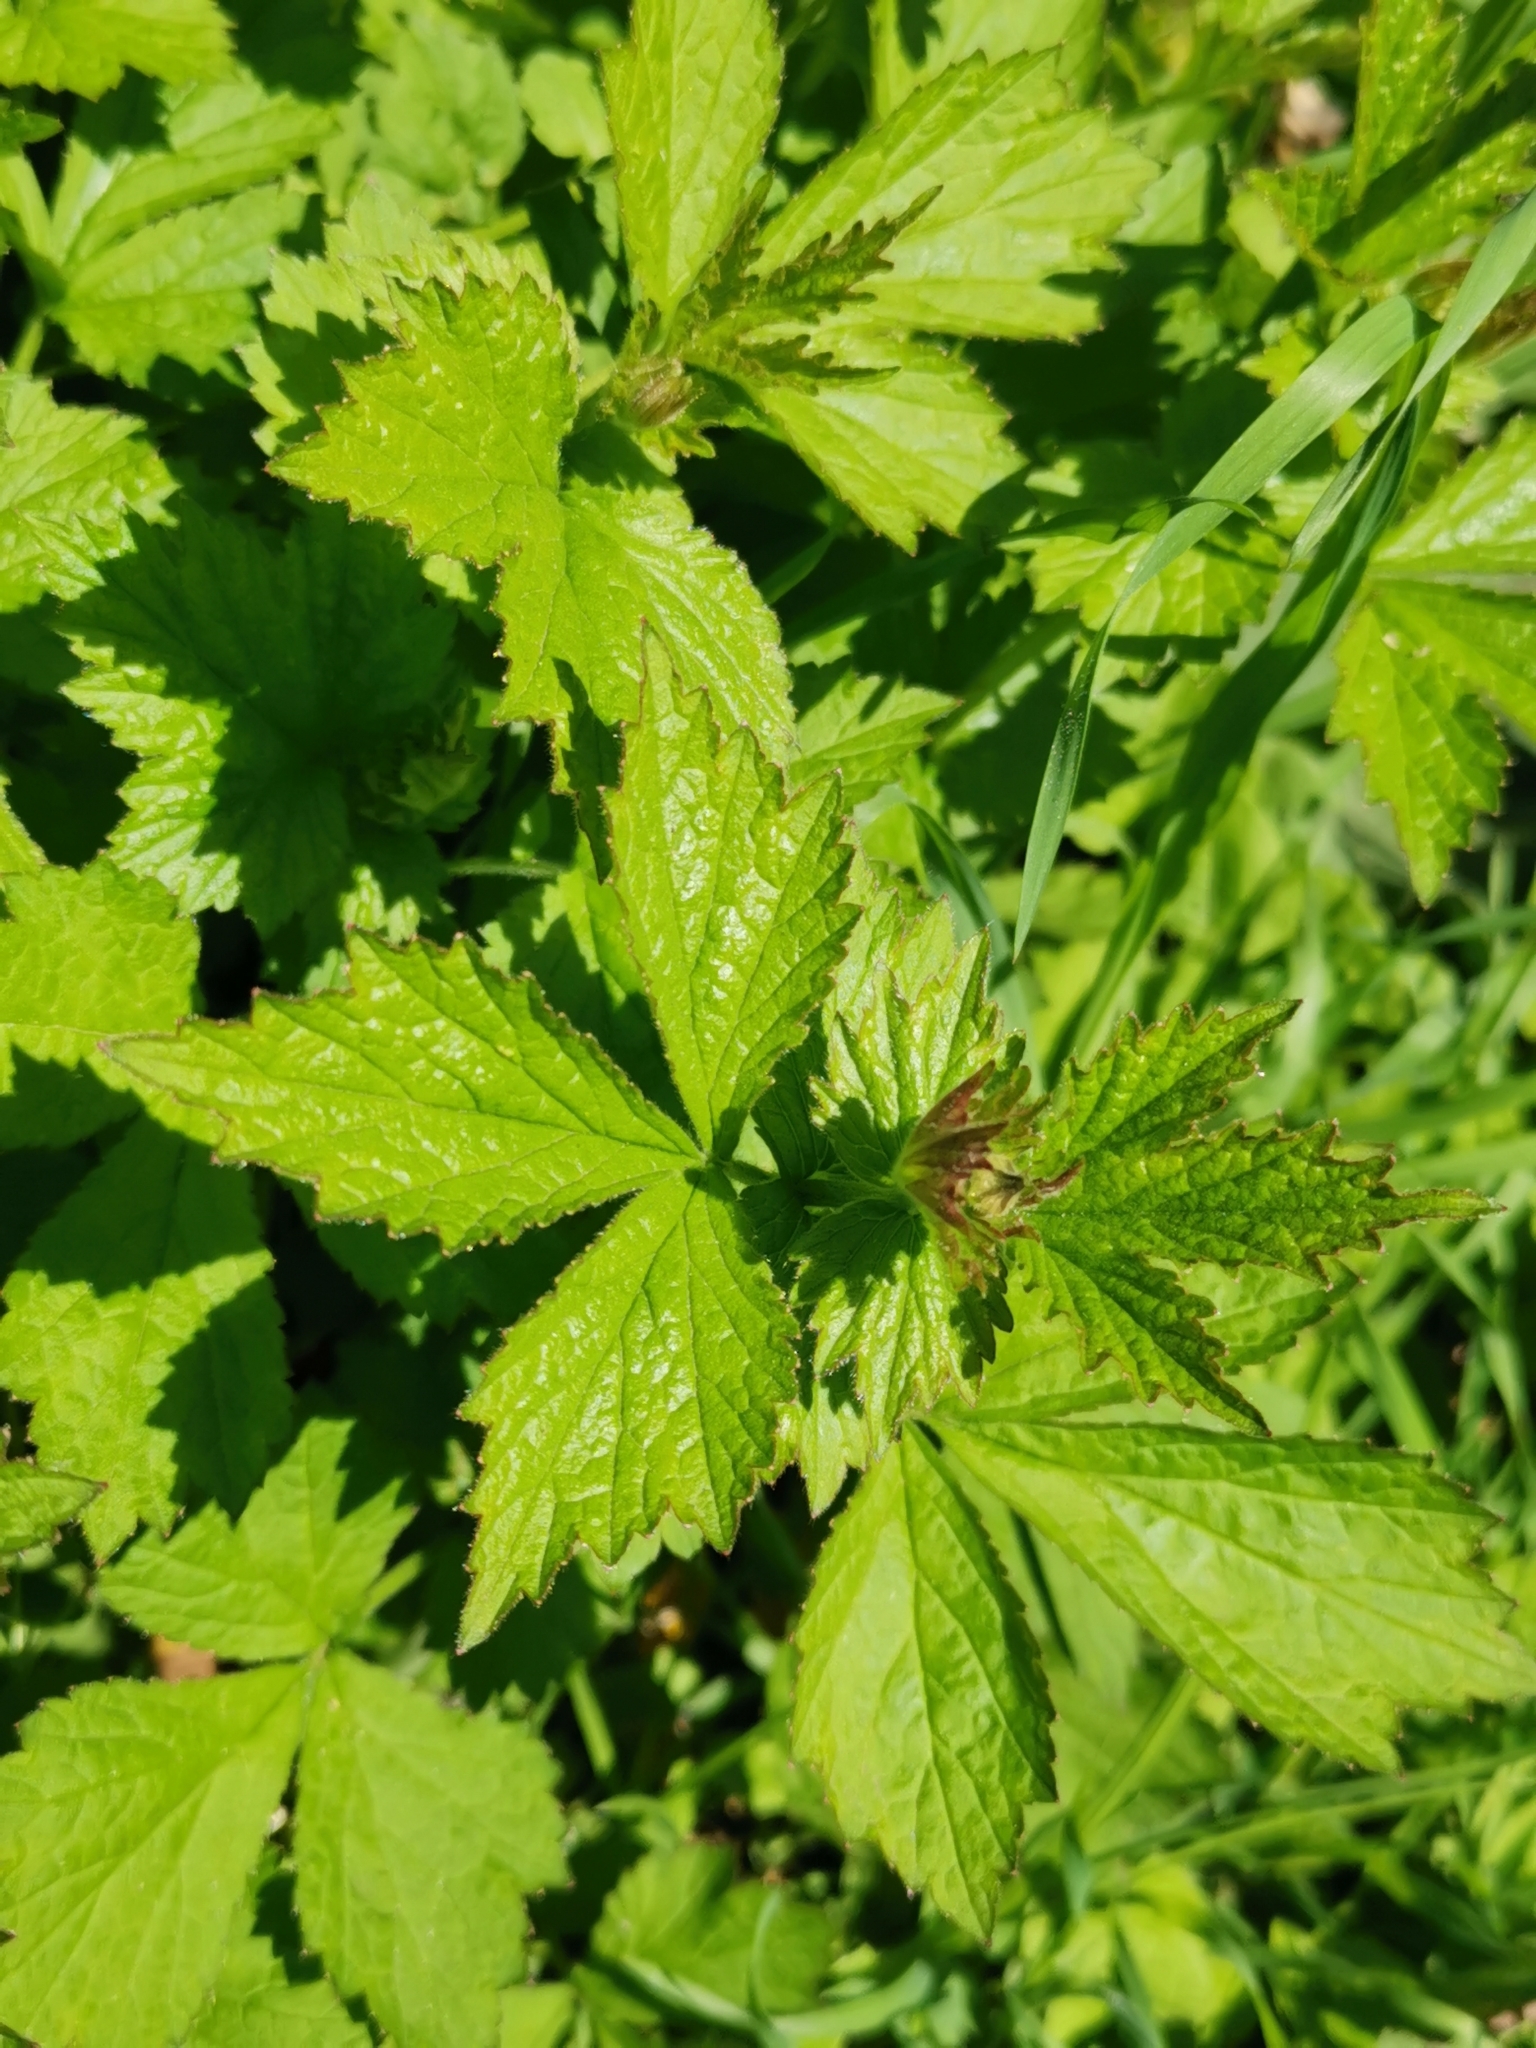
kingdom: Plantae
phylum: Tracheophyta
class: Magnoliopsida
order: Rosales
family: Rosaceae
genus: Geum
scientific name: Geum urbanum
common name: Wood avens
